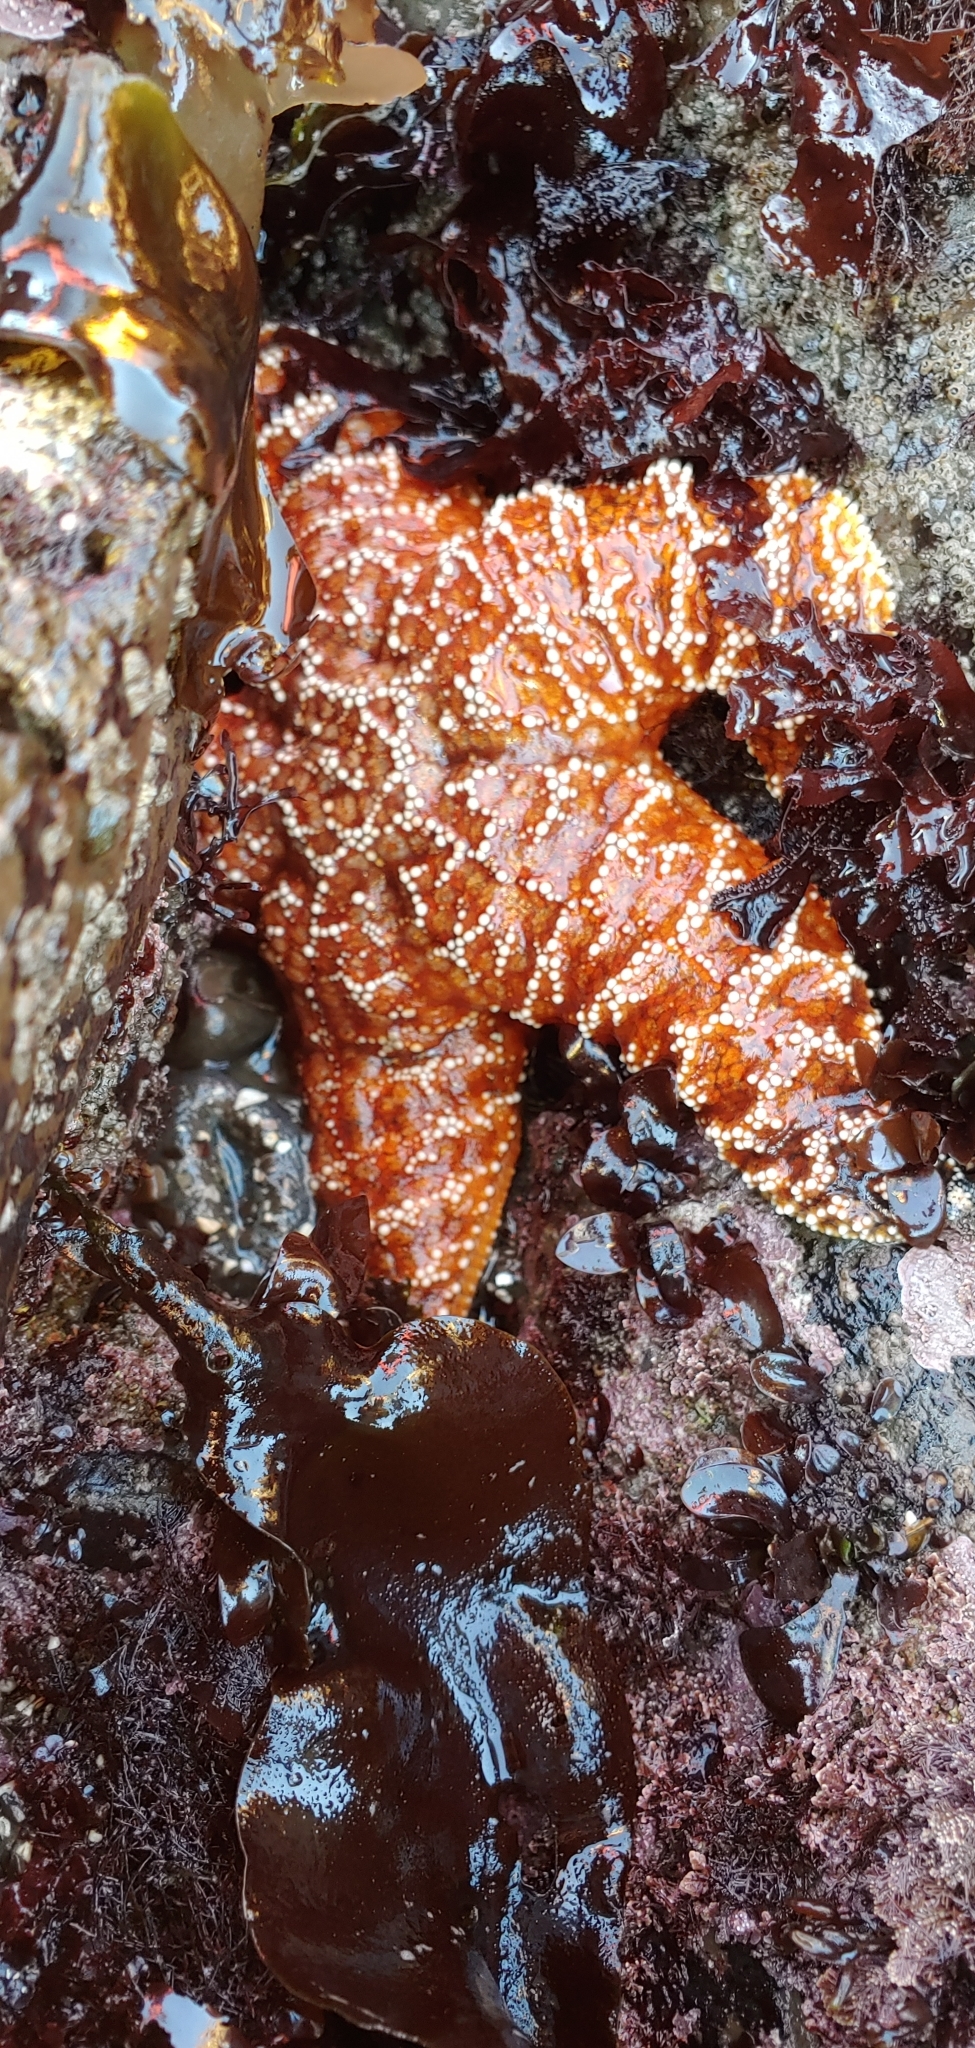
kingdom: Animalia
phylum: Echinodermata
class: Asteroidea
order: Forcipulatida
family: Asteriidae
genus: Pisaster
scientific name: Pisaster ochraceus
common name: Ochre stars
